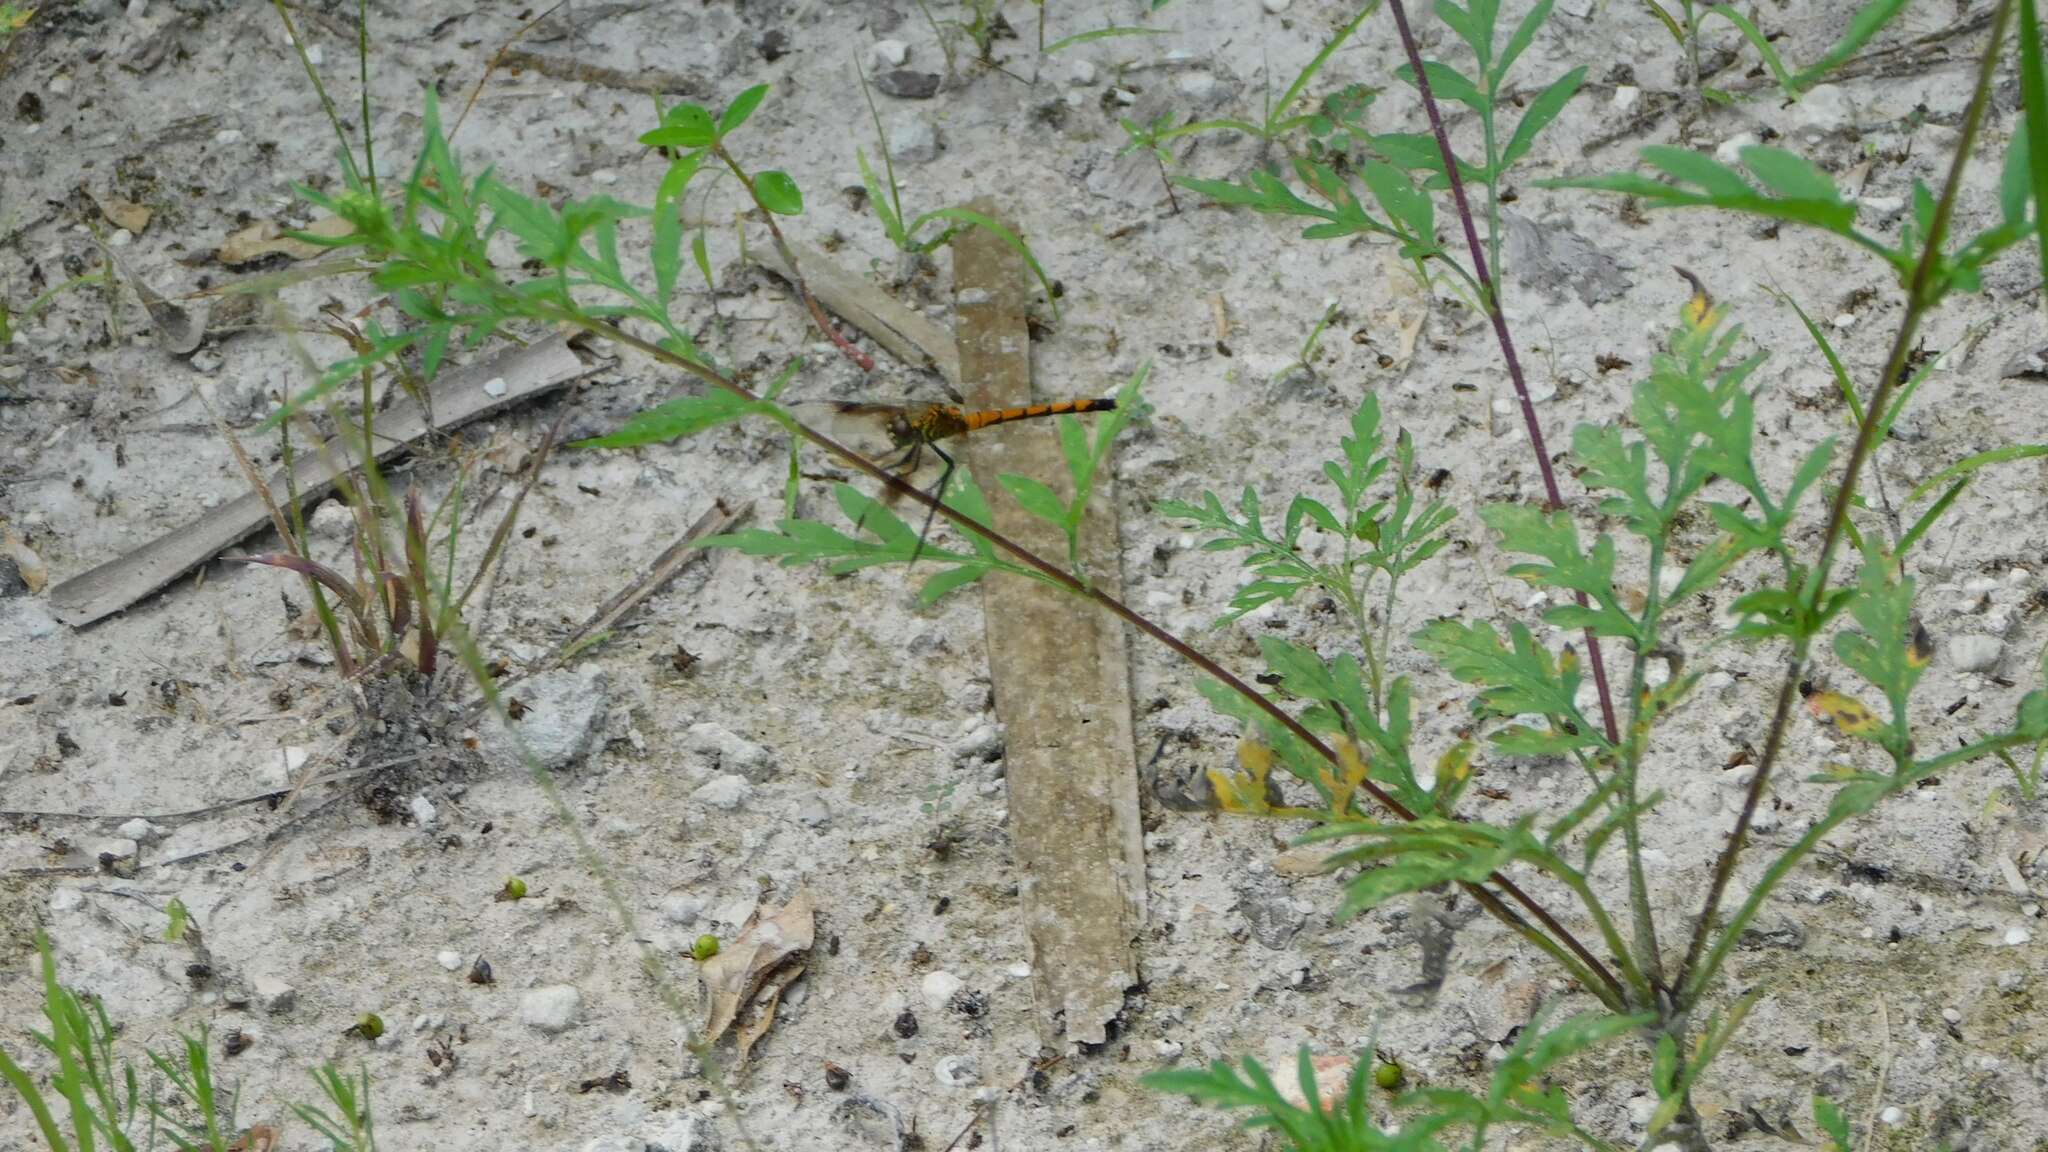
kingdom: Animalia
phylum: Arthropoda
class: Insecta
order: Odonata
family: Libellulidae
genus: Erythrodiplax
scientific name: Erythrodiplax berenice
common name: Seaside dragonlet
